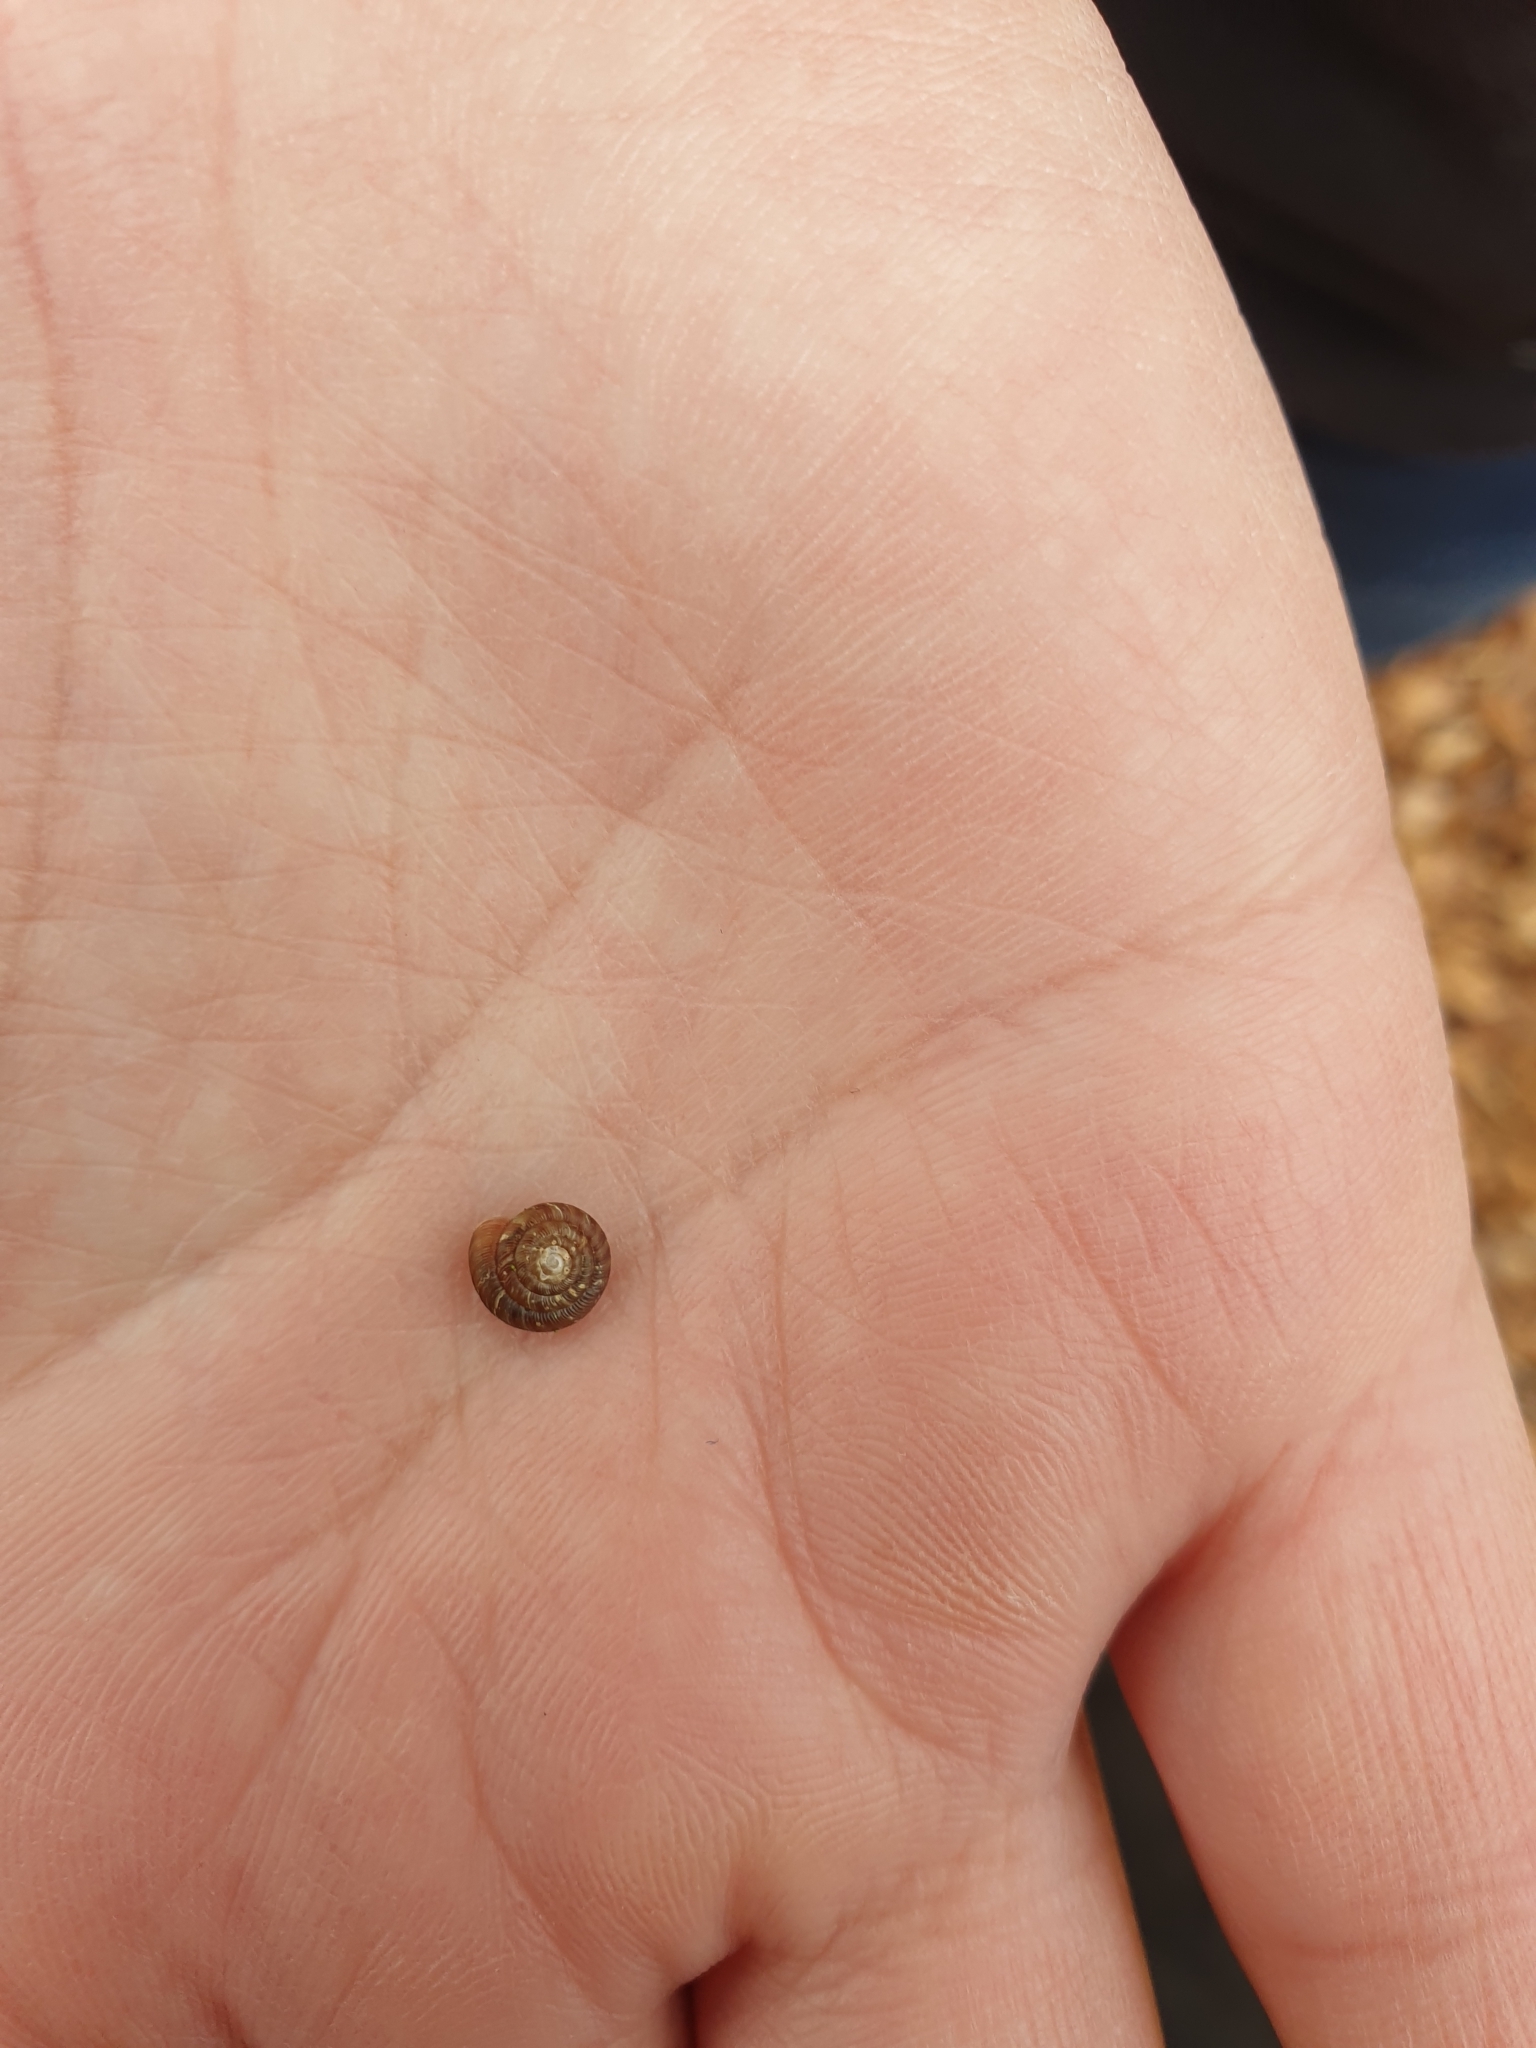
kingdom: Animalia
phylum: Mollusca
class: Gastropoda
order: Stylommatophora
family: Discidae
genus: Discus
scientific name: Discus rotundatus
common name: Rounded snail
